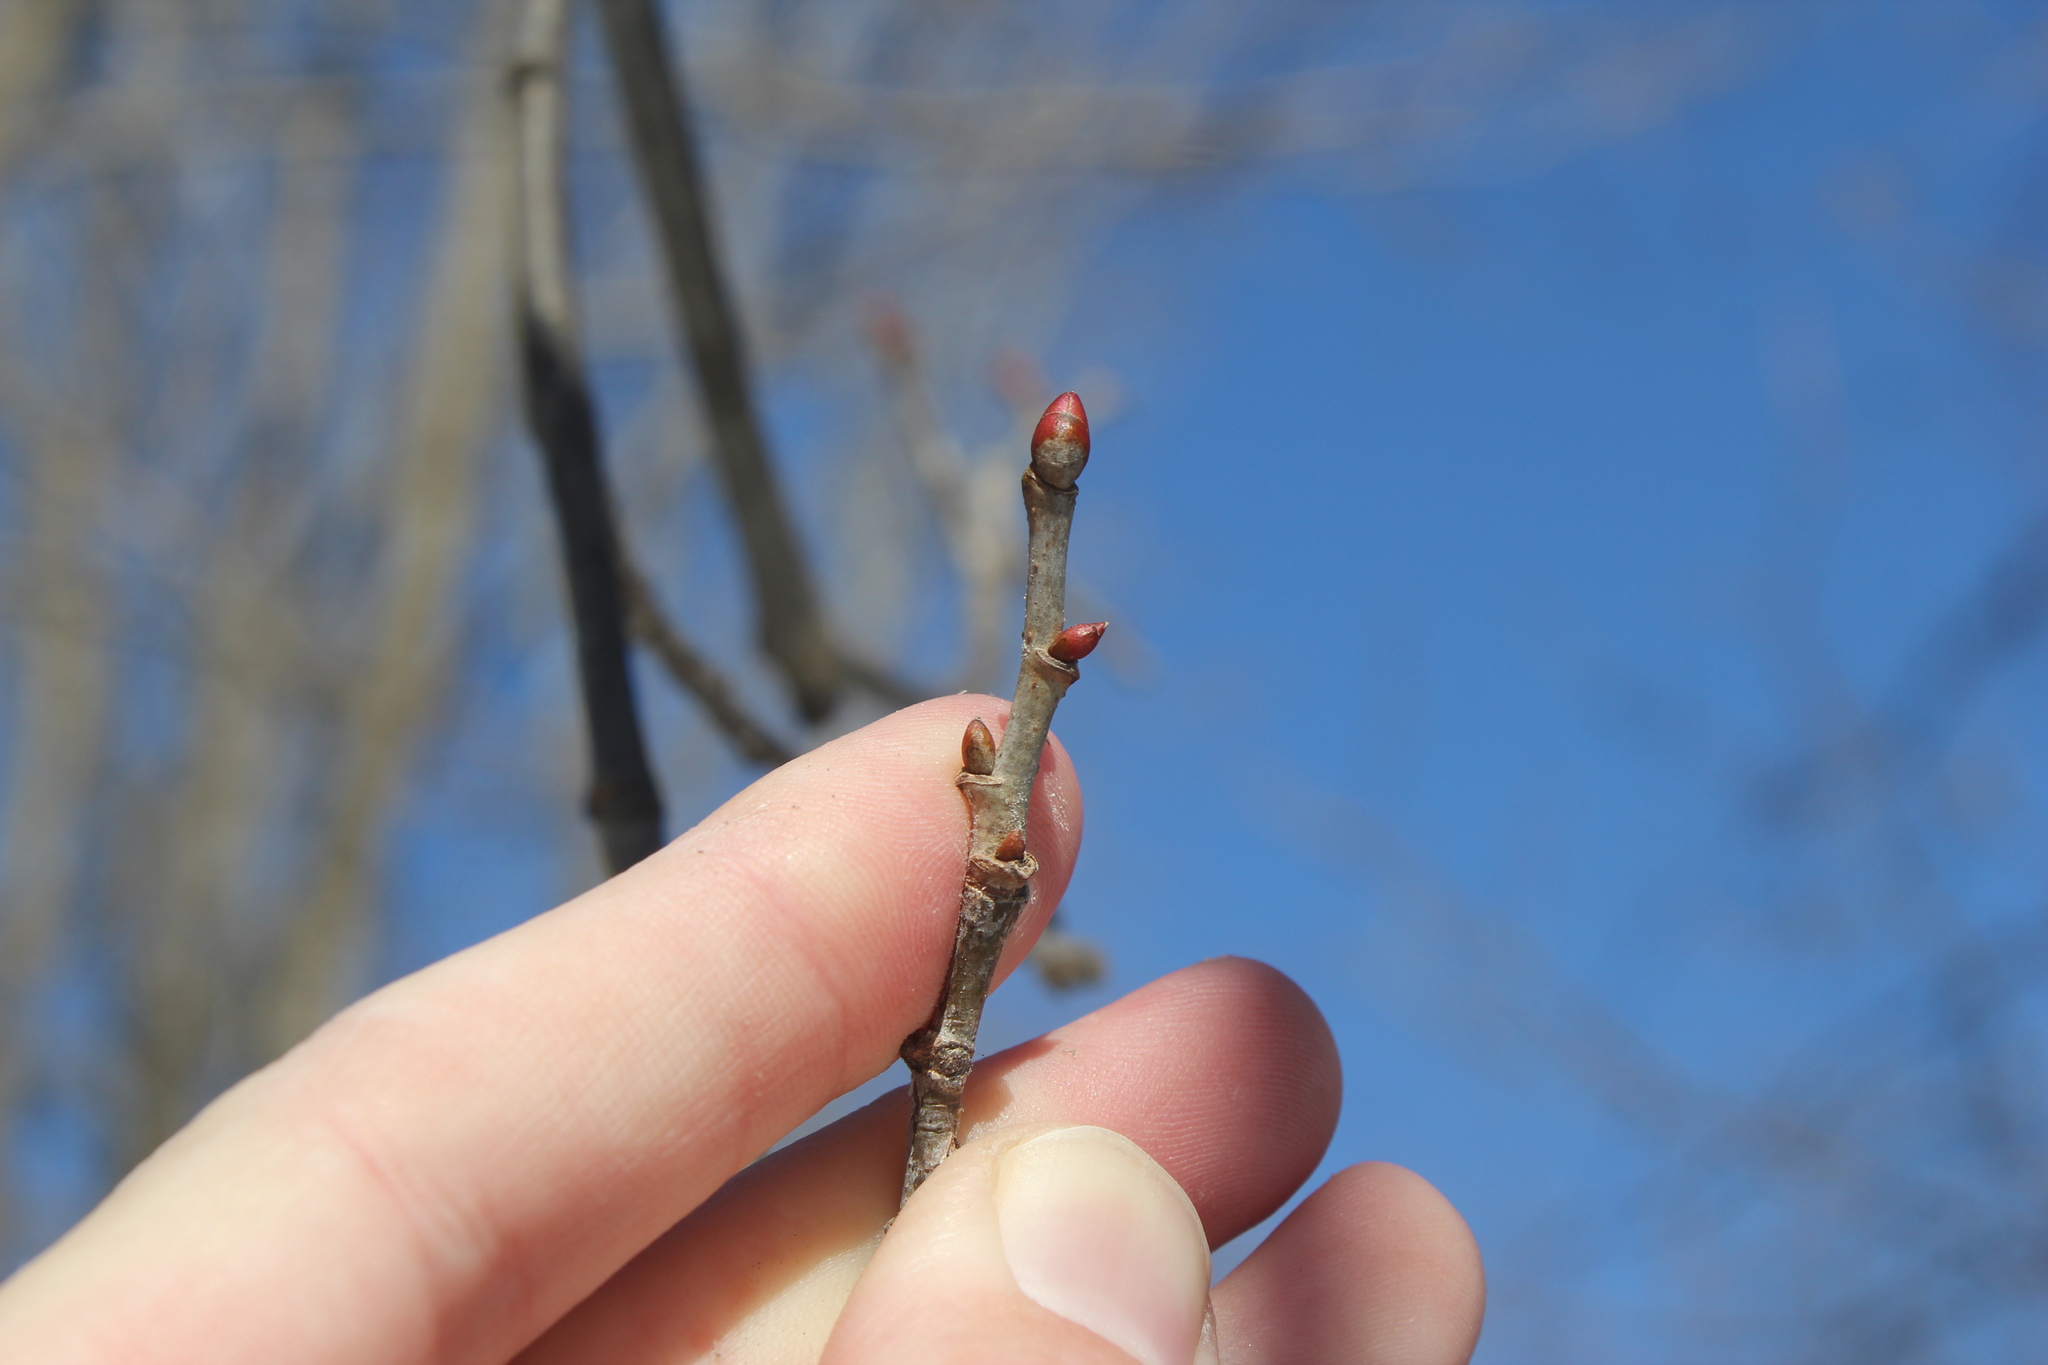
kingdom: Plantae
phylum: Tracheophyta
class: Magnoliopsida
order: Malvales
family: Malvaceae
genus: Tilia
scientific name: Tilia americana
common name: Basswood
